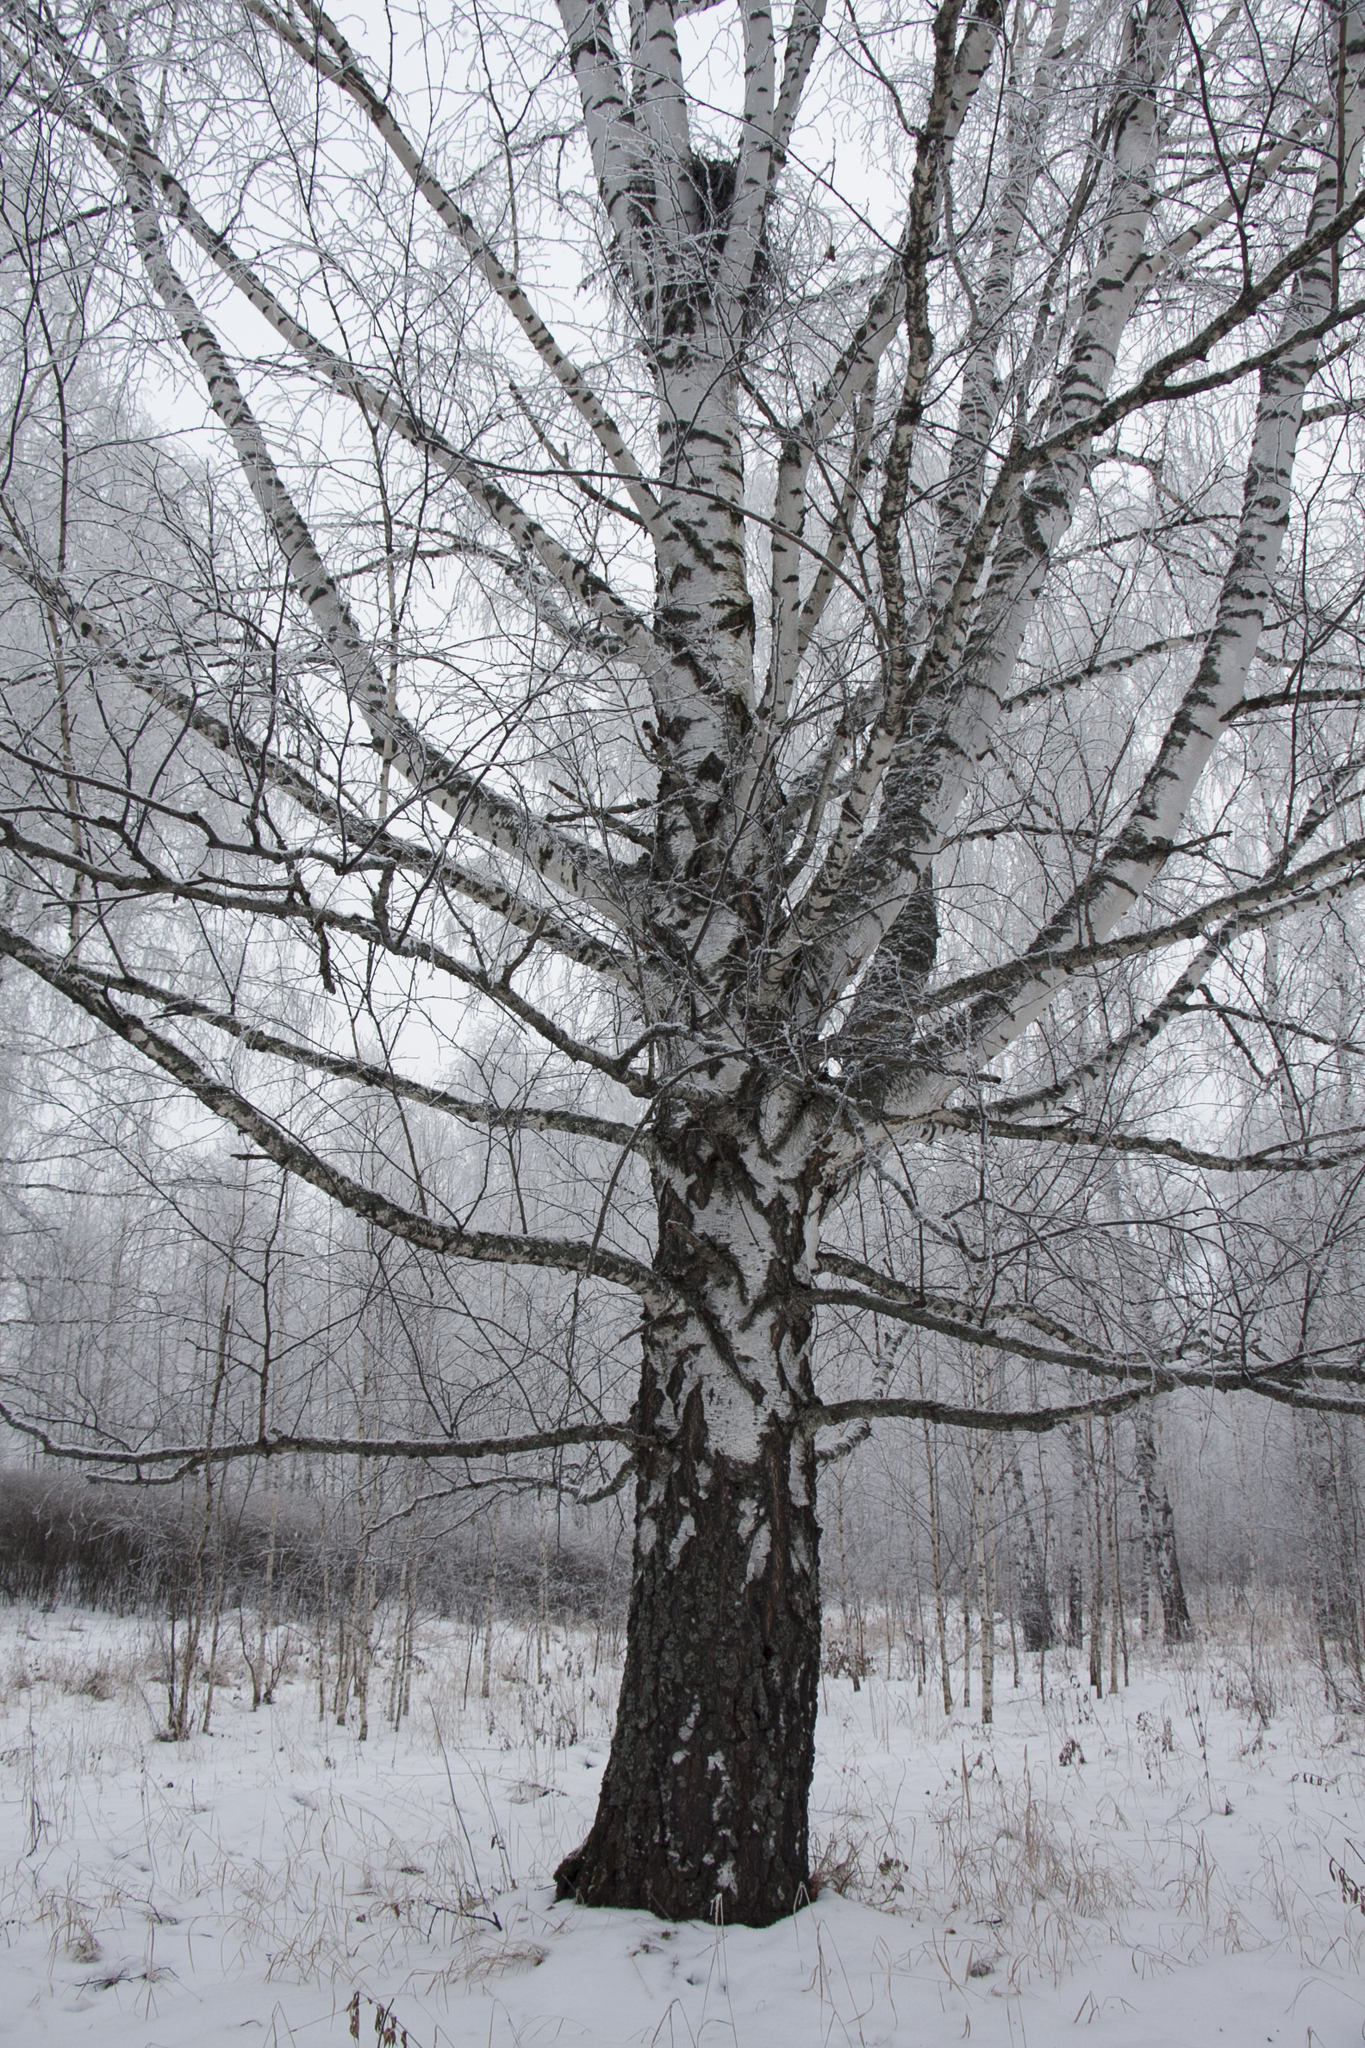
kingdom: Plantae
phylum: Tracheophyta
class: Magnoliopsida
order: Fagales
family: Betulaceae
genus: Betula
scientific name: Betula pendula
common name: Silver birch
